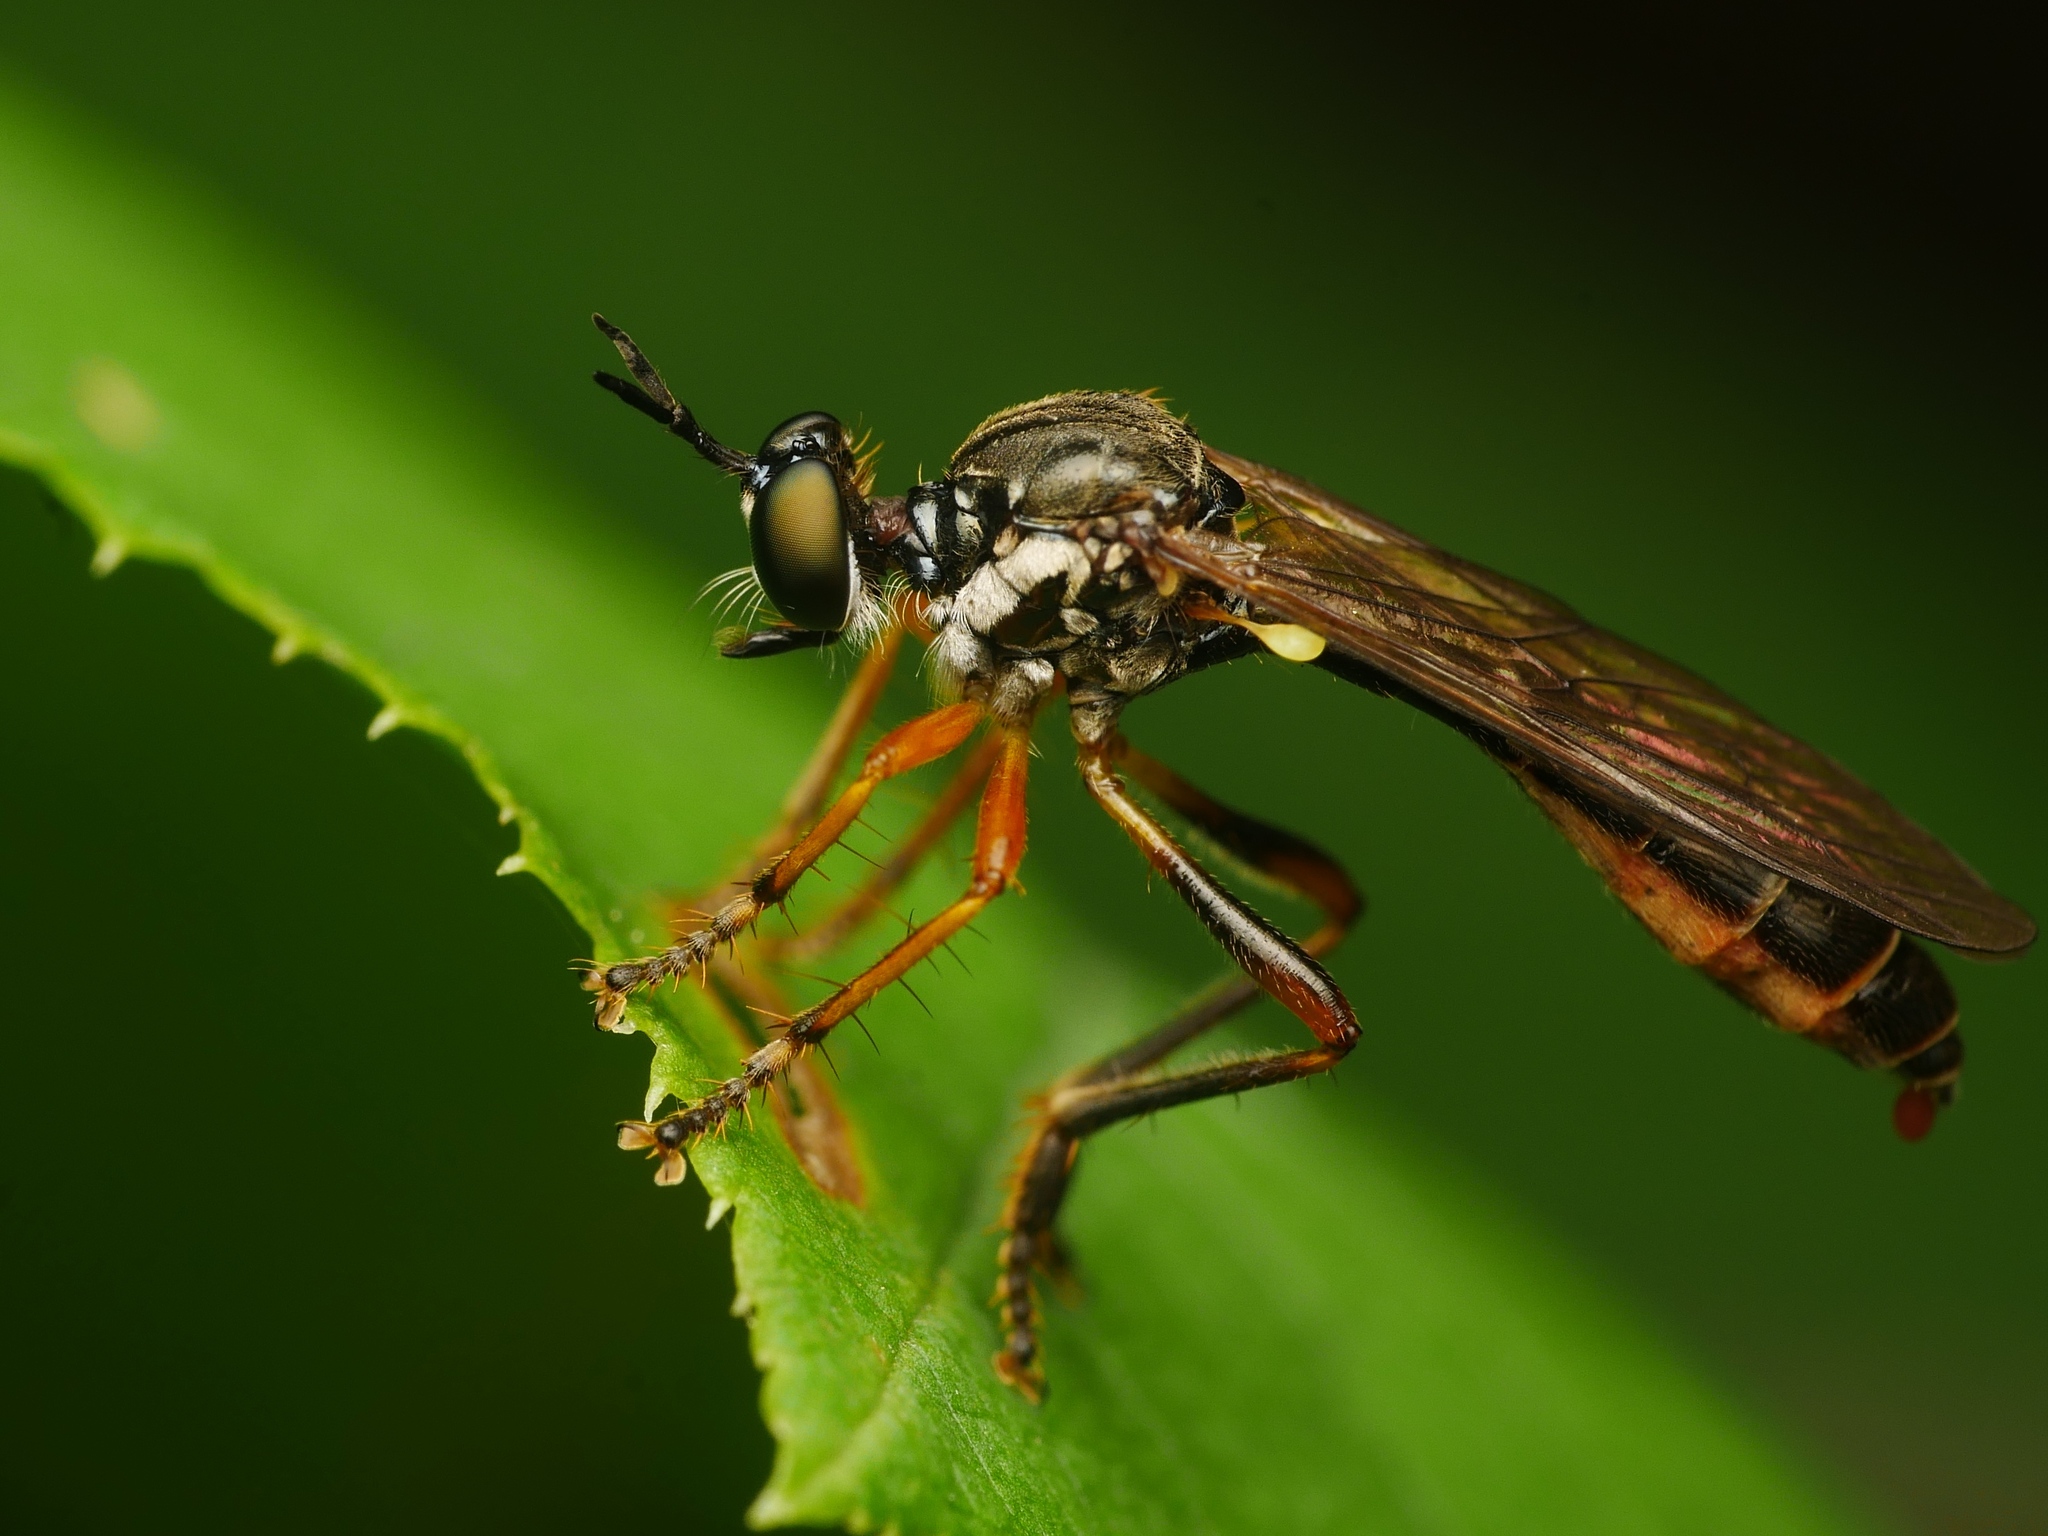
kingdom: Animalia
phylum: Arthropoda
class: Insecta
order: Diptera
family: Asilidae
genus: Dioctria
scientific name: Dioctria hyalipennis
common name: Stripe-legged robberfly
